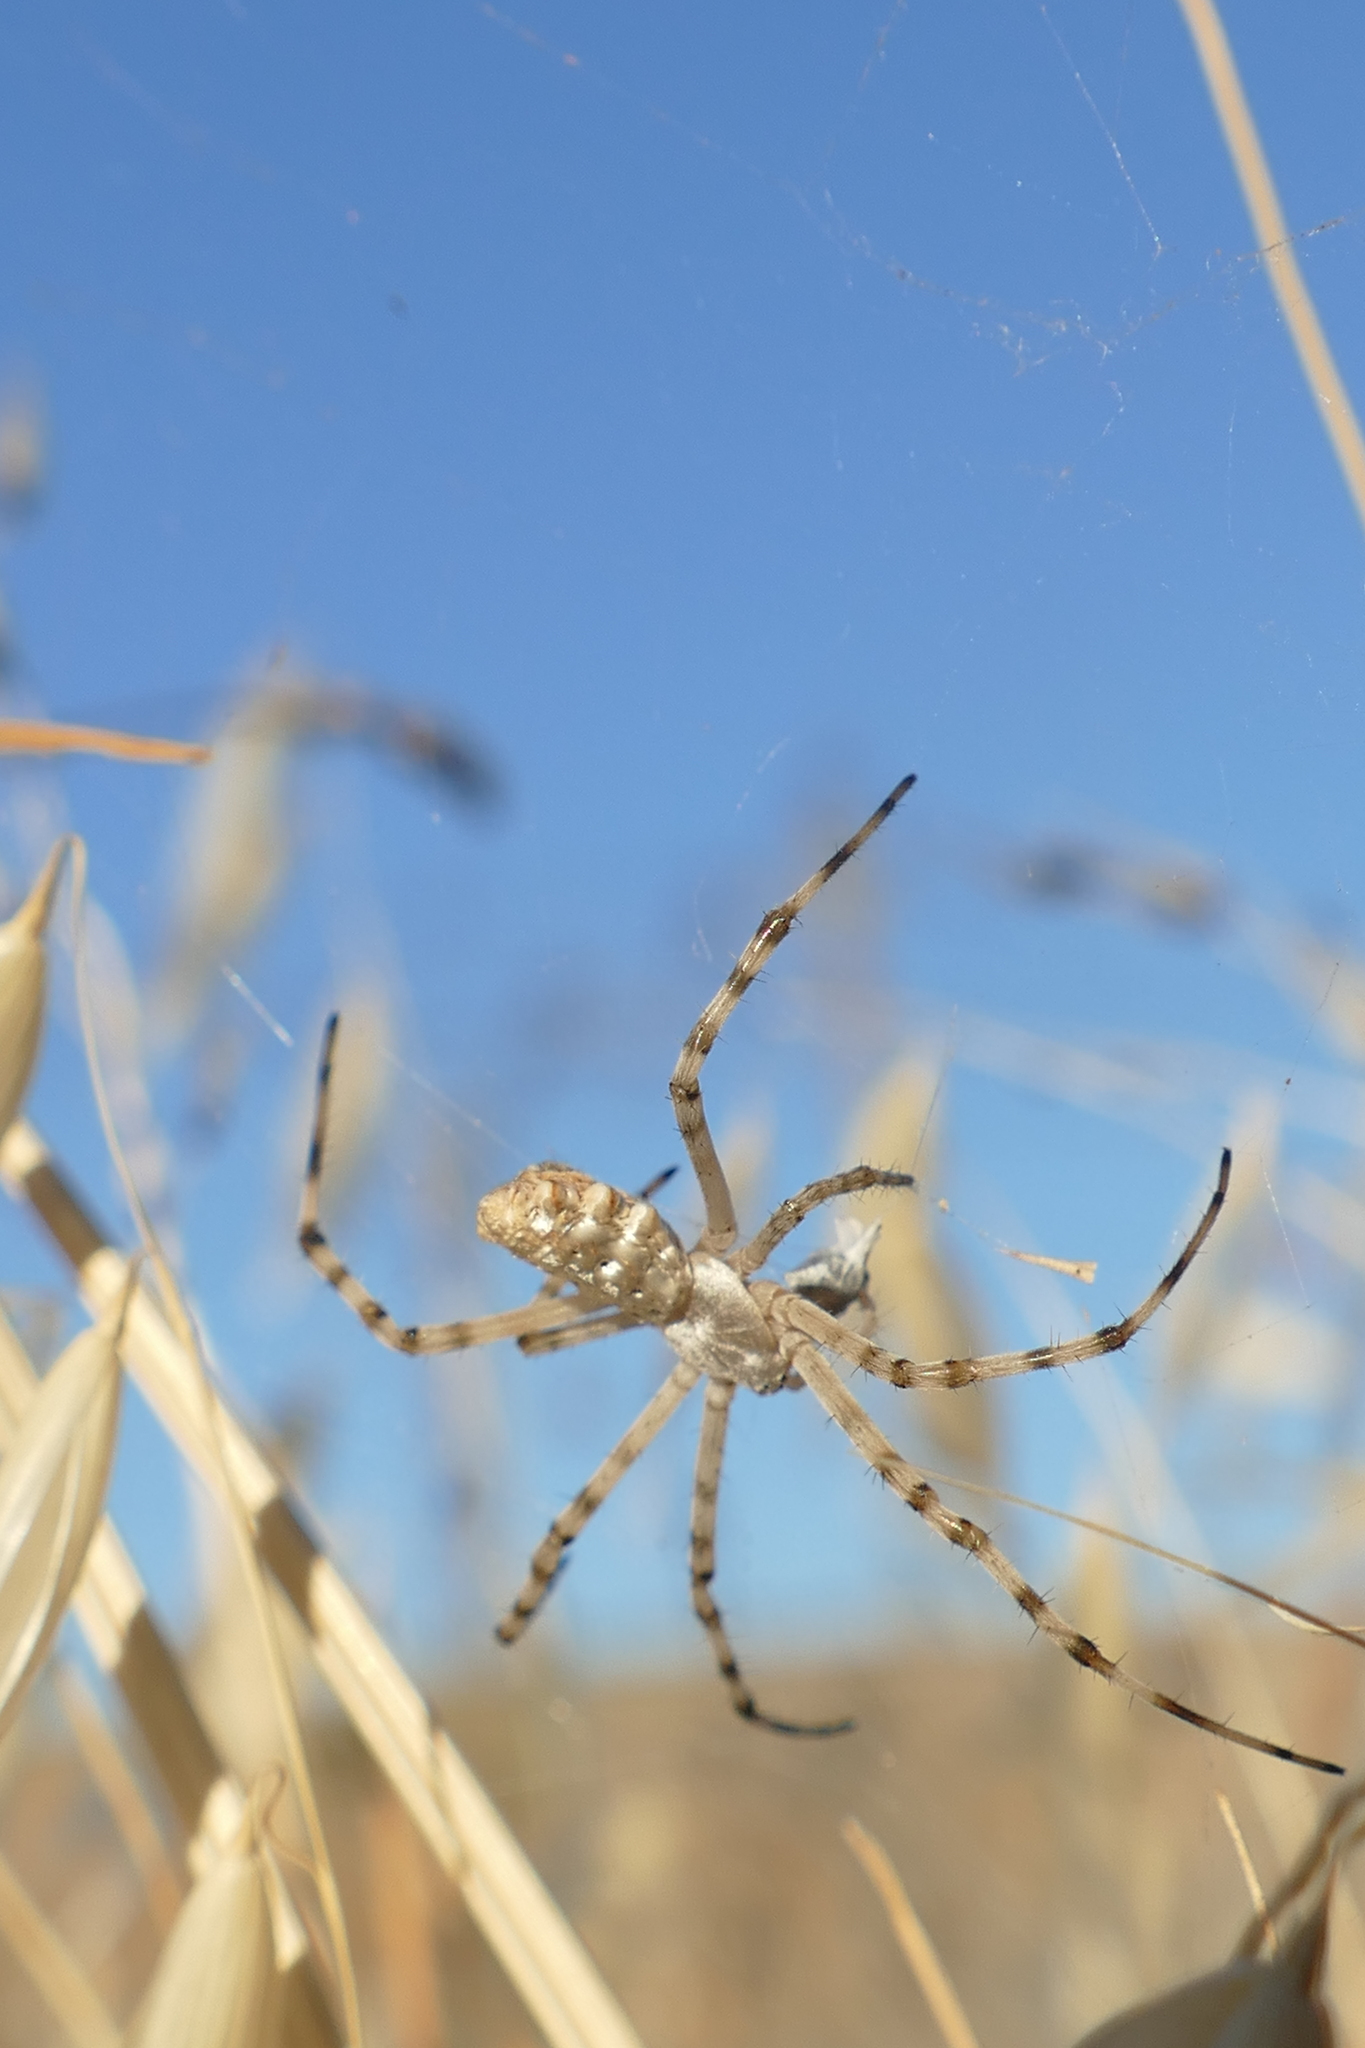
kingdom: Animalia
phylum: Arthropoda
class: Arachnida
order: Araneae
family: Araneidae
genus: Argiope
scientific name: Argiope lobata
